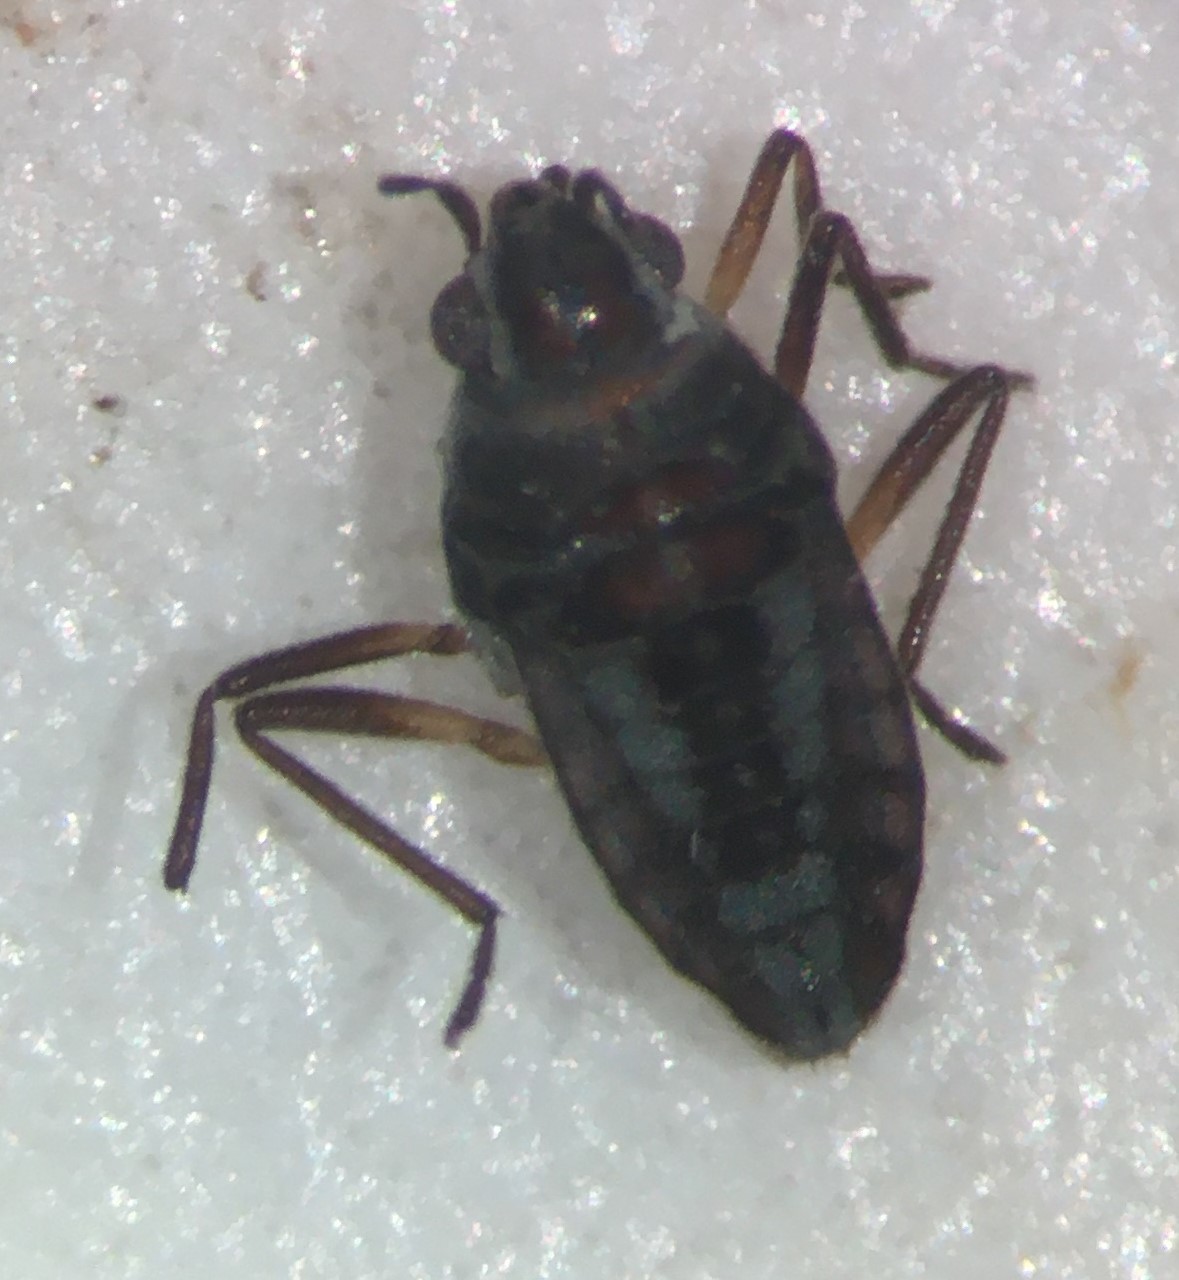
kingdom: Animalia
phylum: Arthropoda
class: Insecta
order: Hemiptera
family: Veliidae
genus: Microvelia
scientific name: Microvelia hinei
